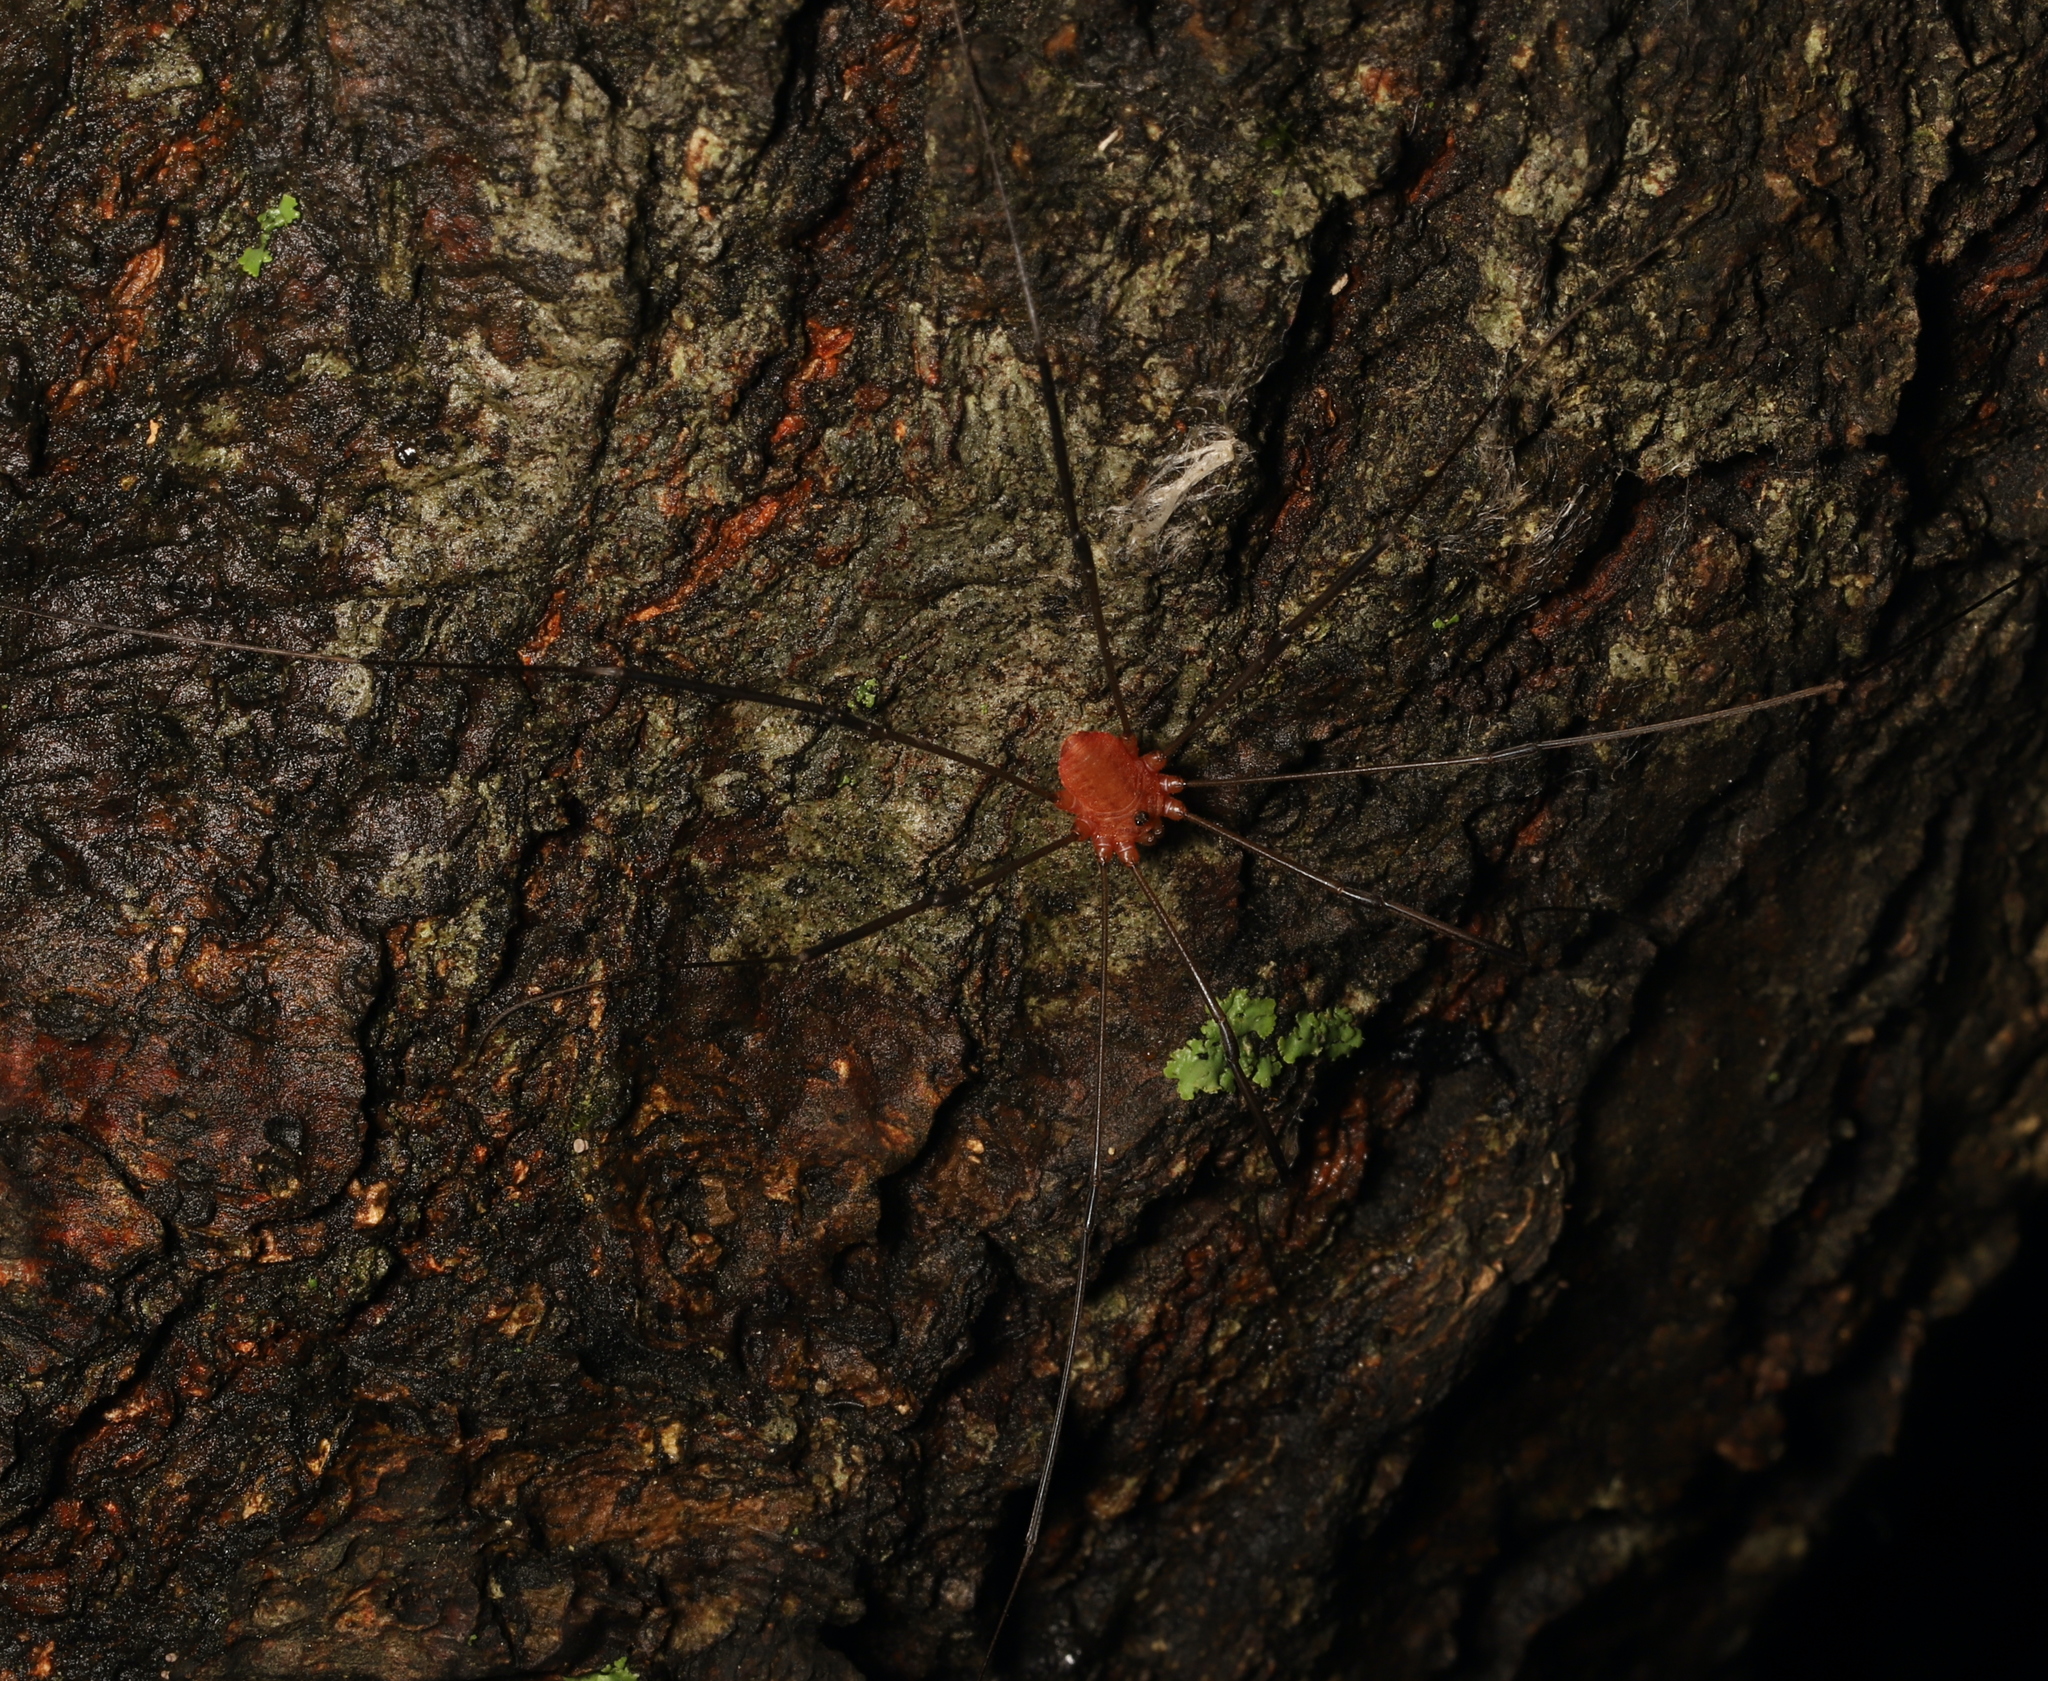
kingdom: Animalia
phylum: Arthropoda
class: Arachnida
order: Opiliones
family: Sclerosomatidae
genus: Leiobunum
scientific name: Leiobunum politum
